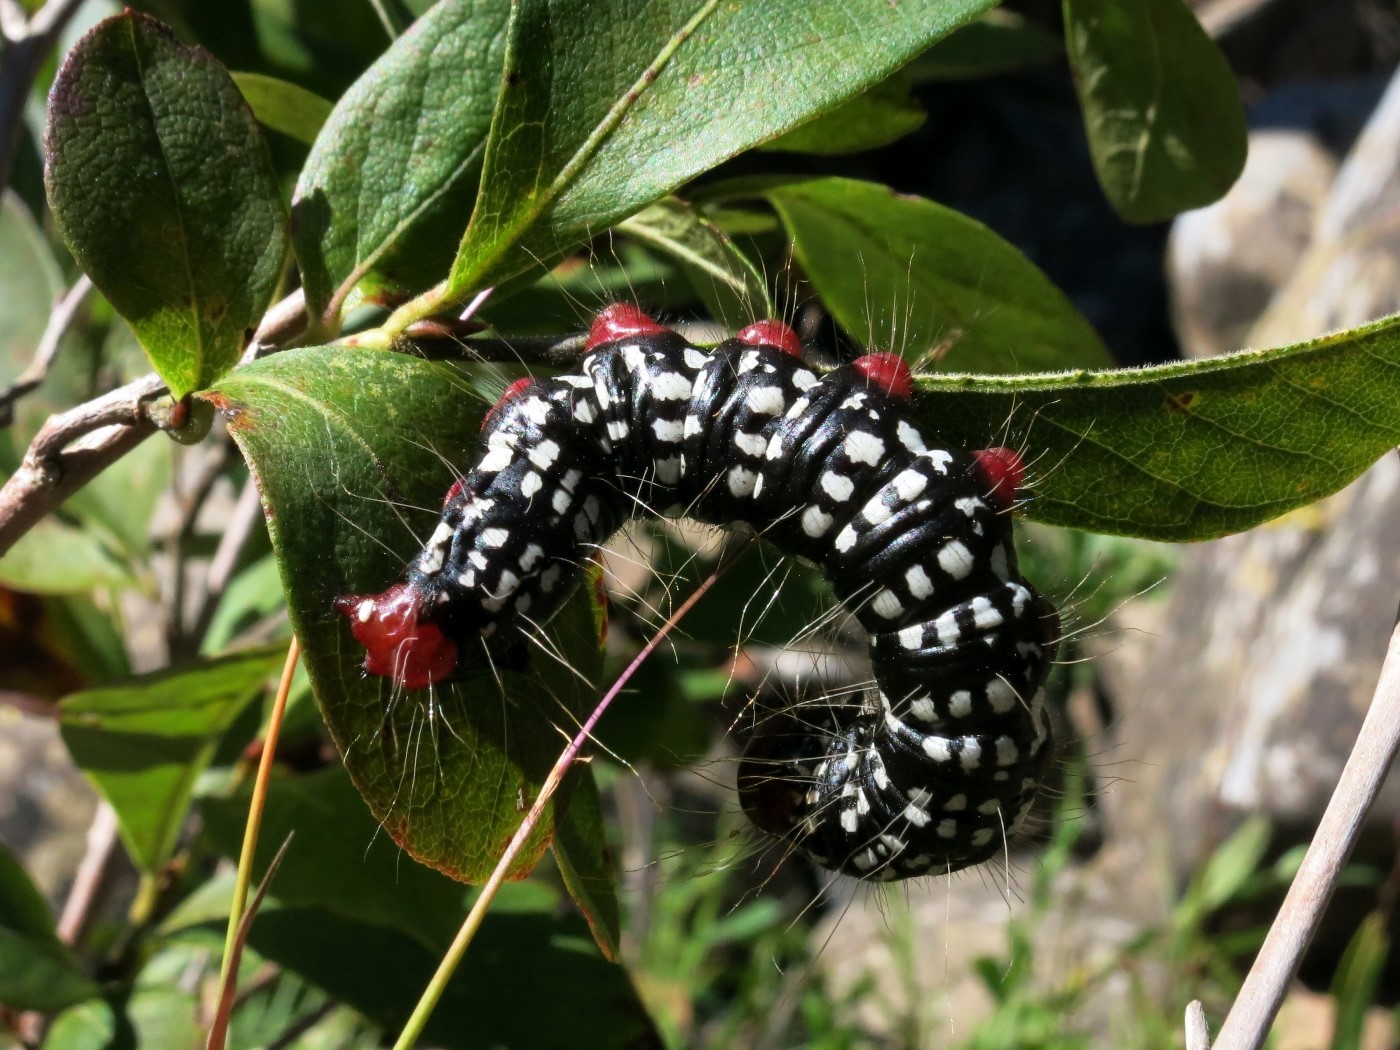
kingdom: Animalia
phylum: Arthropoda
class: Insecta
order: Lepidoptera
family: Notodontidae
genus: Datana
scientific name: Datana major
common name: Azalea caterpillar
